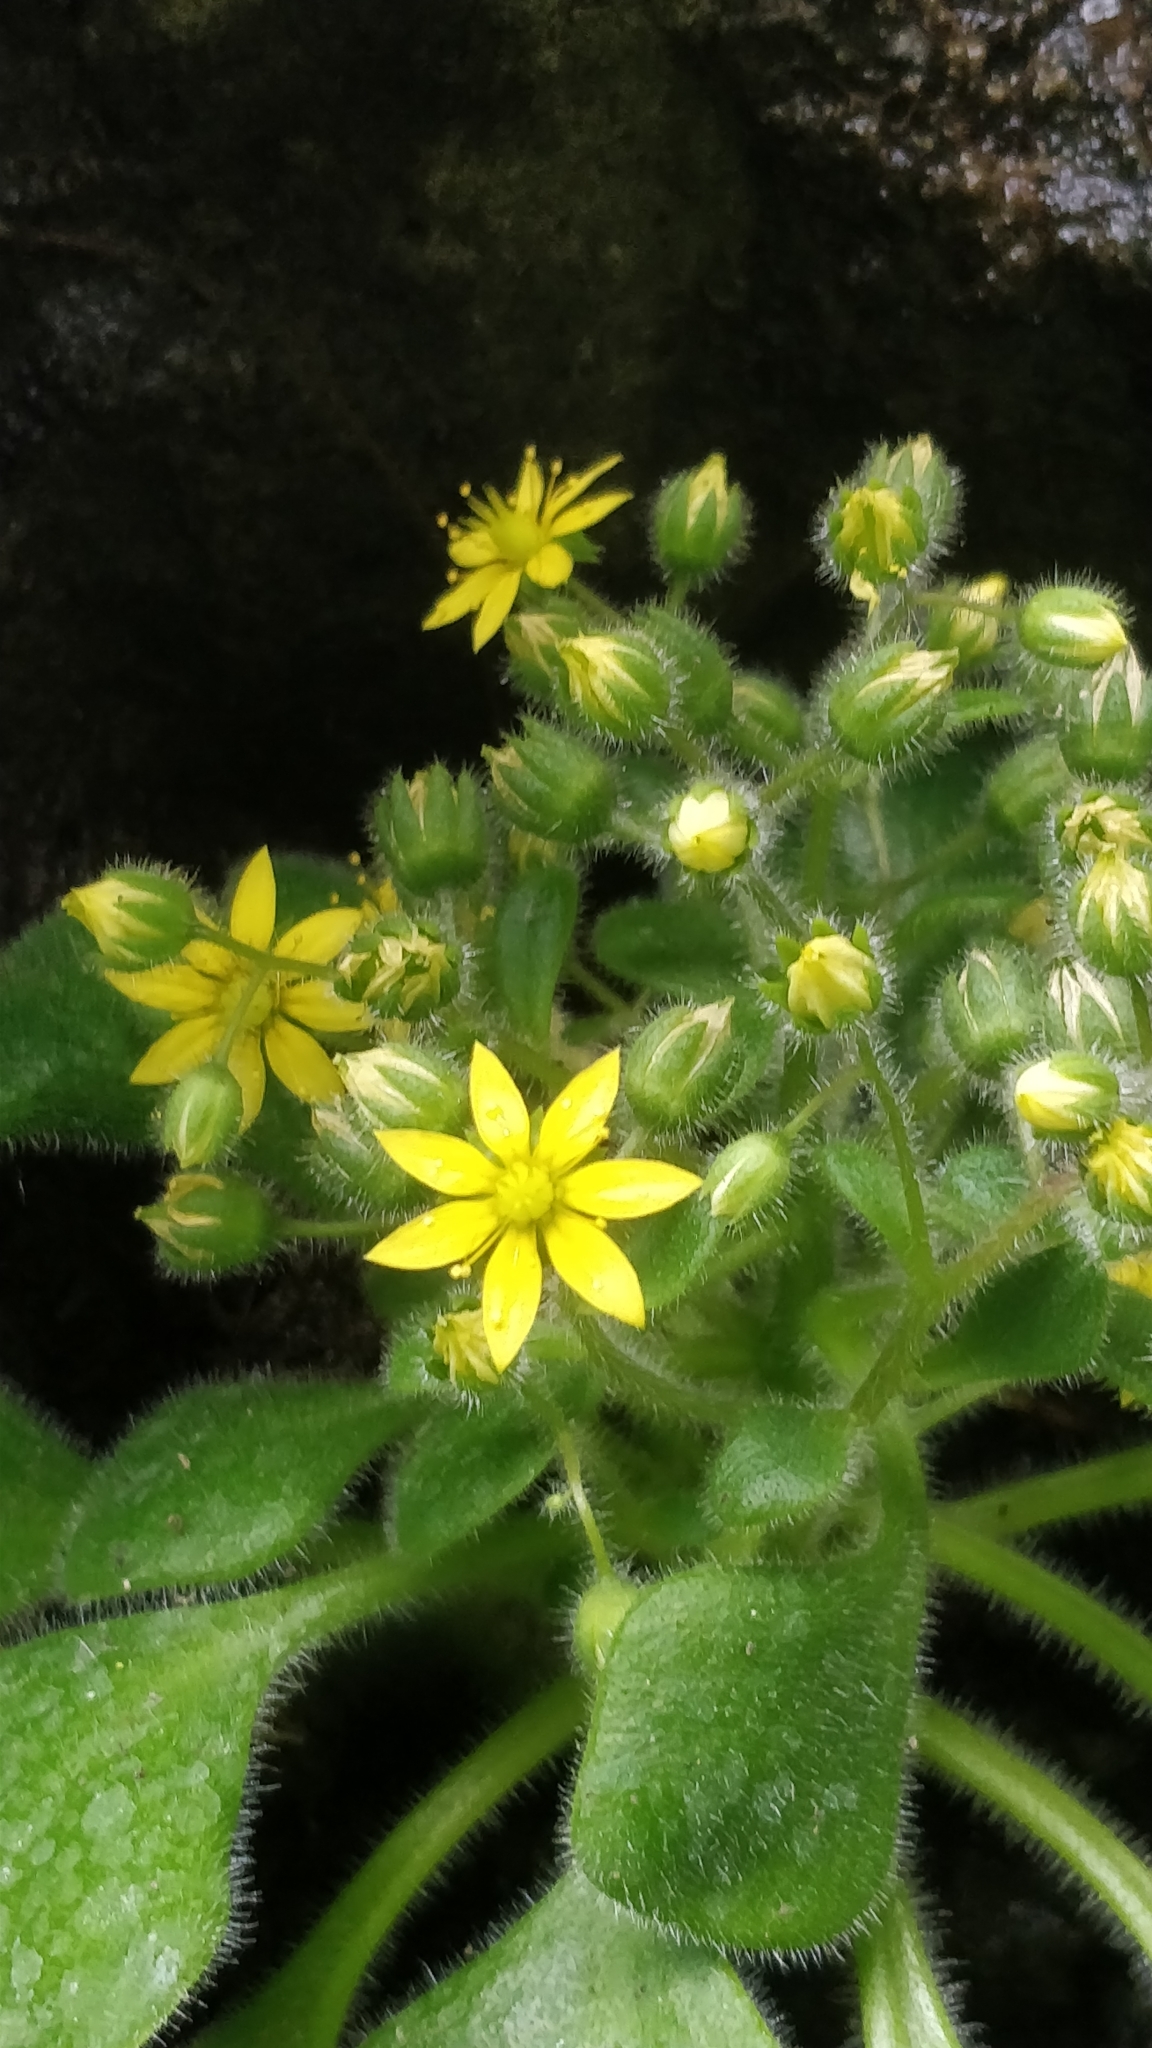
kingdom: Plantae
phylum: Tracheophyta
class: Magnoliopsida
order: Saxifragales
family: Crassulaceae
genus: Aichryson
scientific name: Aichryson villosum
